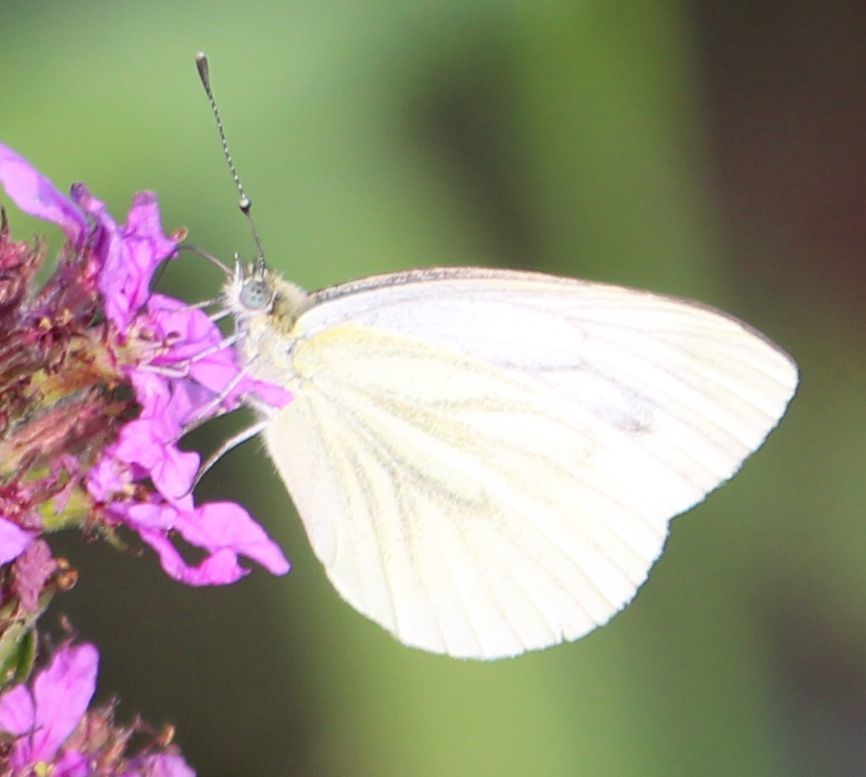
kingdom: Animalia
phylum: Arthropoda
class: Insecta
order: Lepidoptera
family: Pieridae
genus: Pieris
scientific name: Pieris napi
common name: Green-veined white
